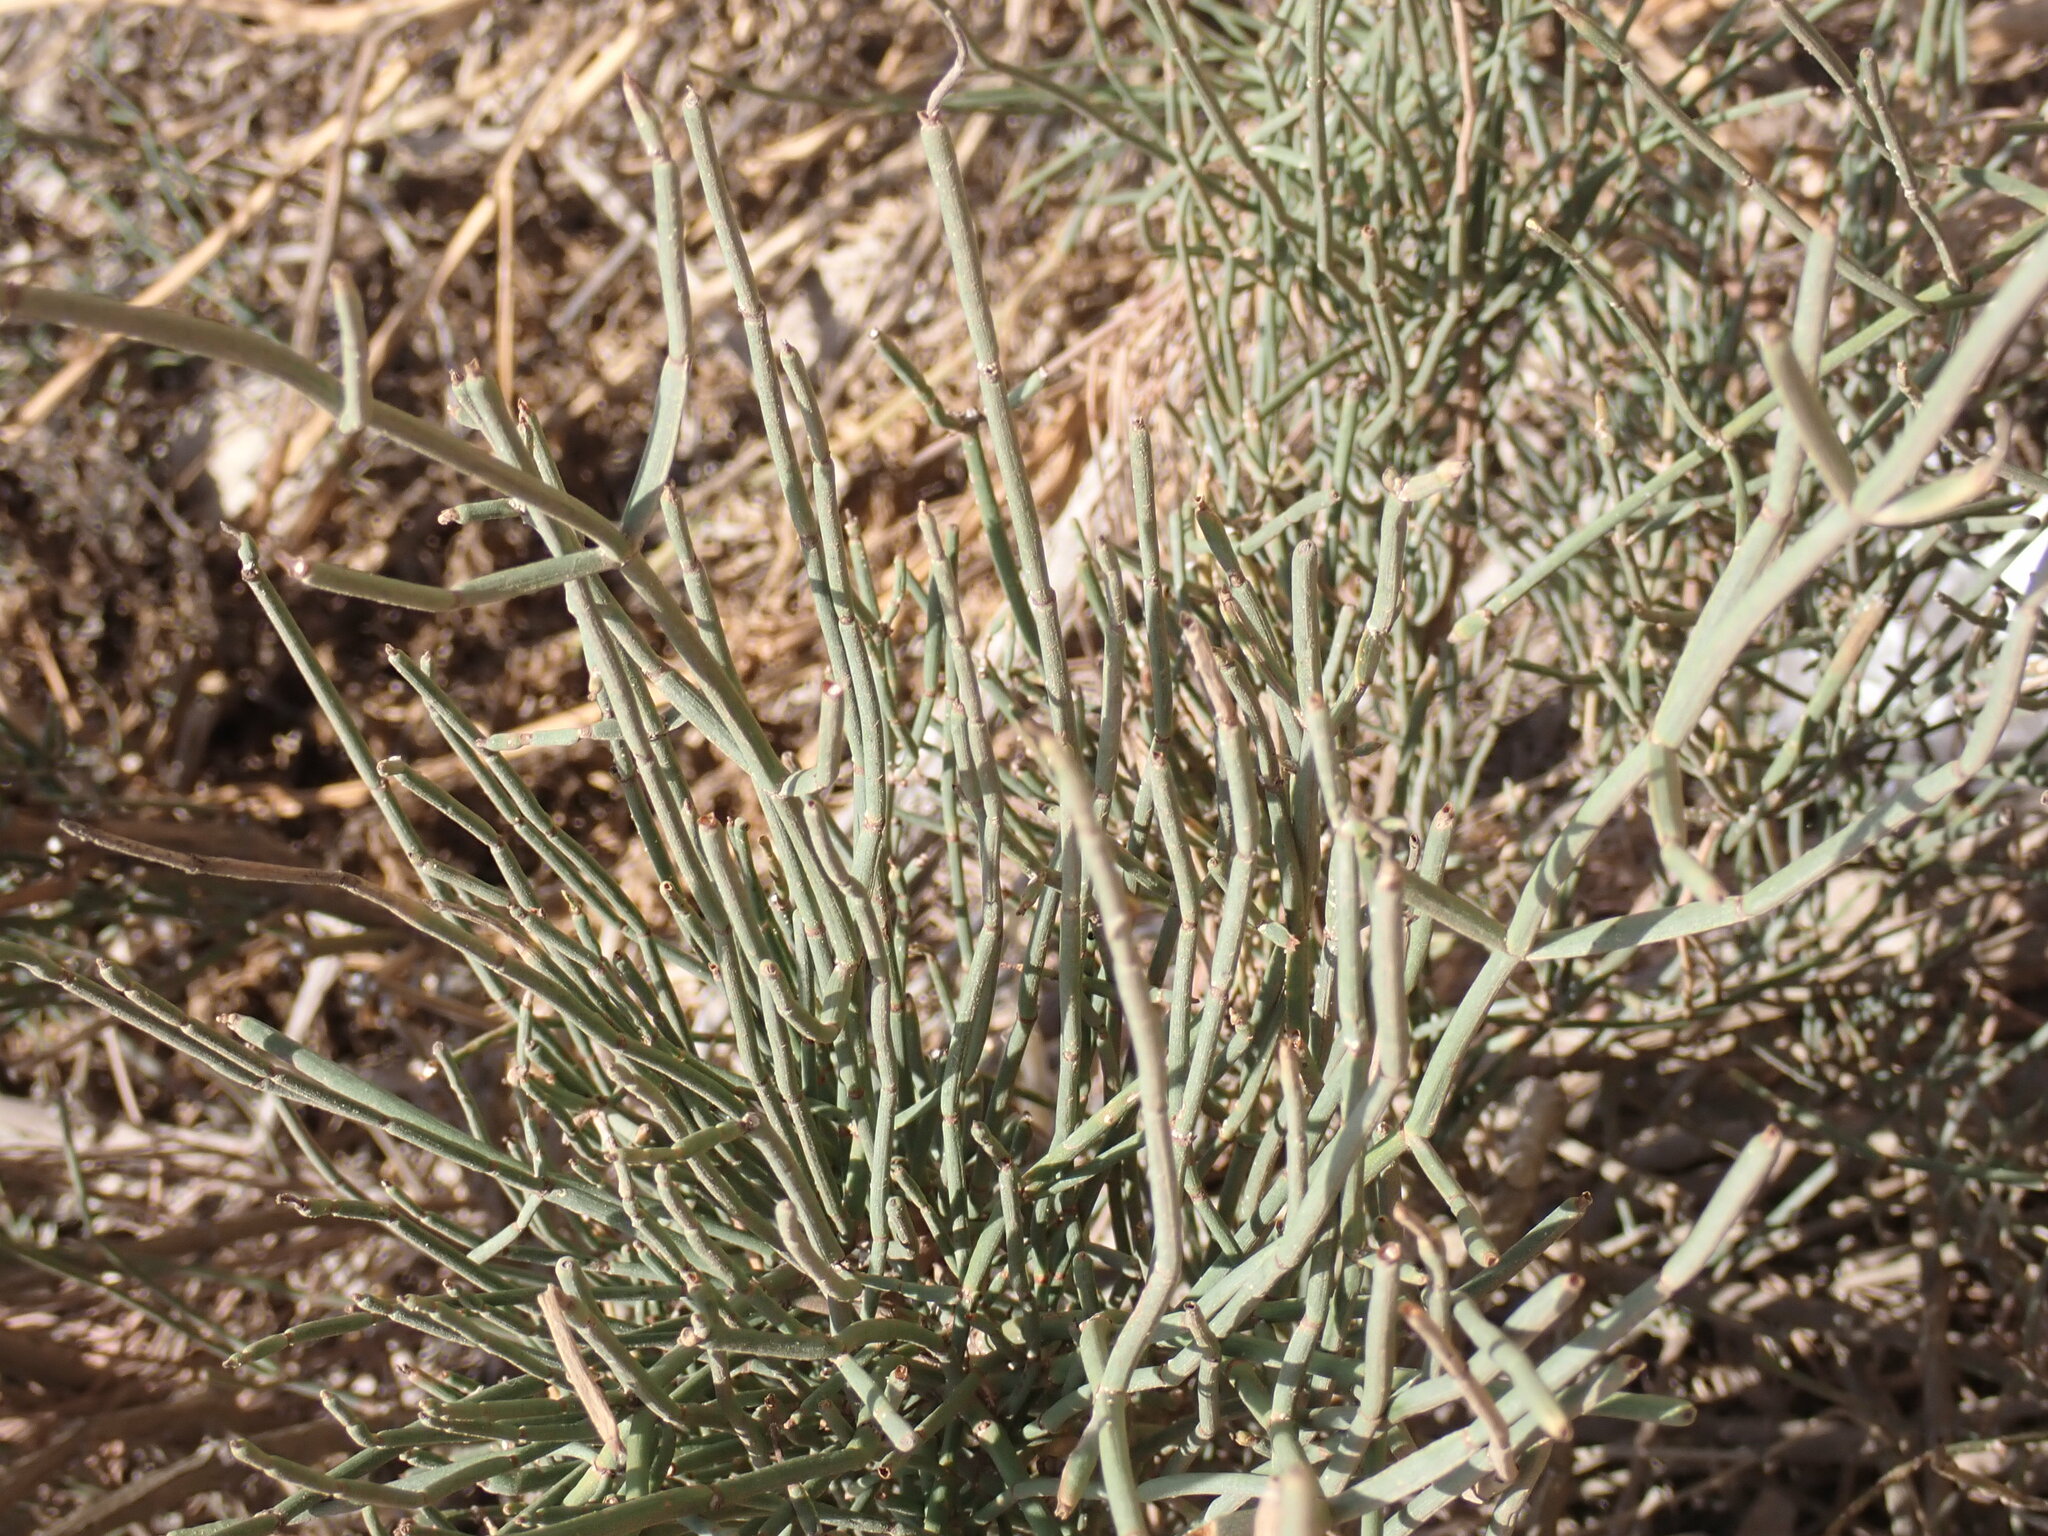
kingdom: Plantae
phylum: Tracheophyta
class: Gnetopsida
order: Ephedrales
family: Ephedraceae
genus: Ephedra
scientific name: Ephedra fragilis
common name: Joint pine
